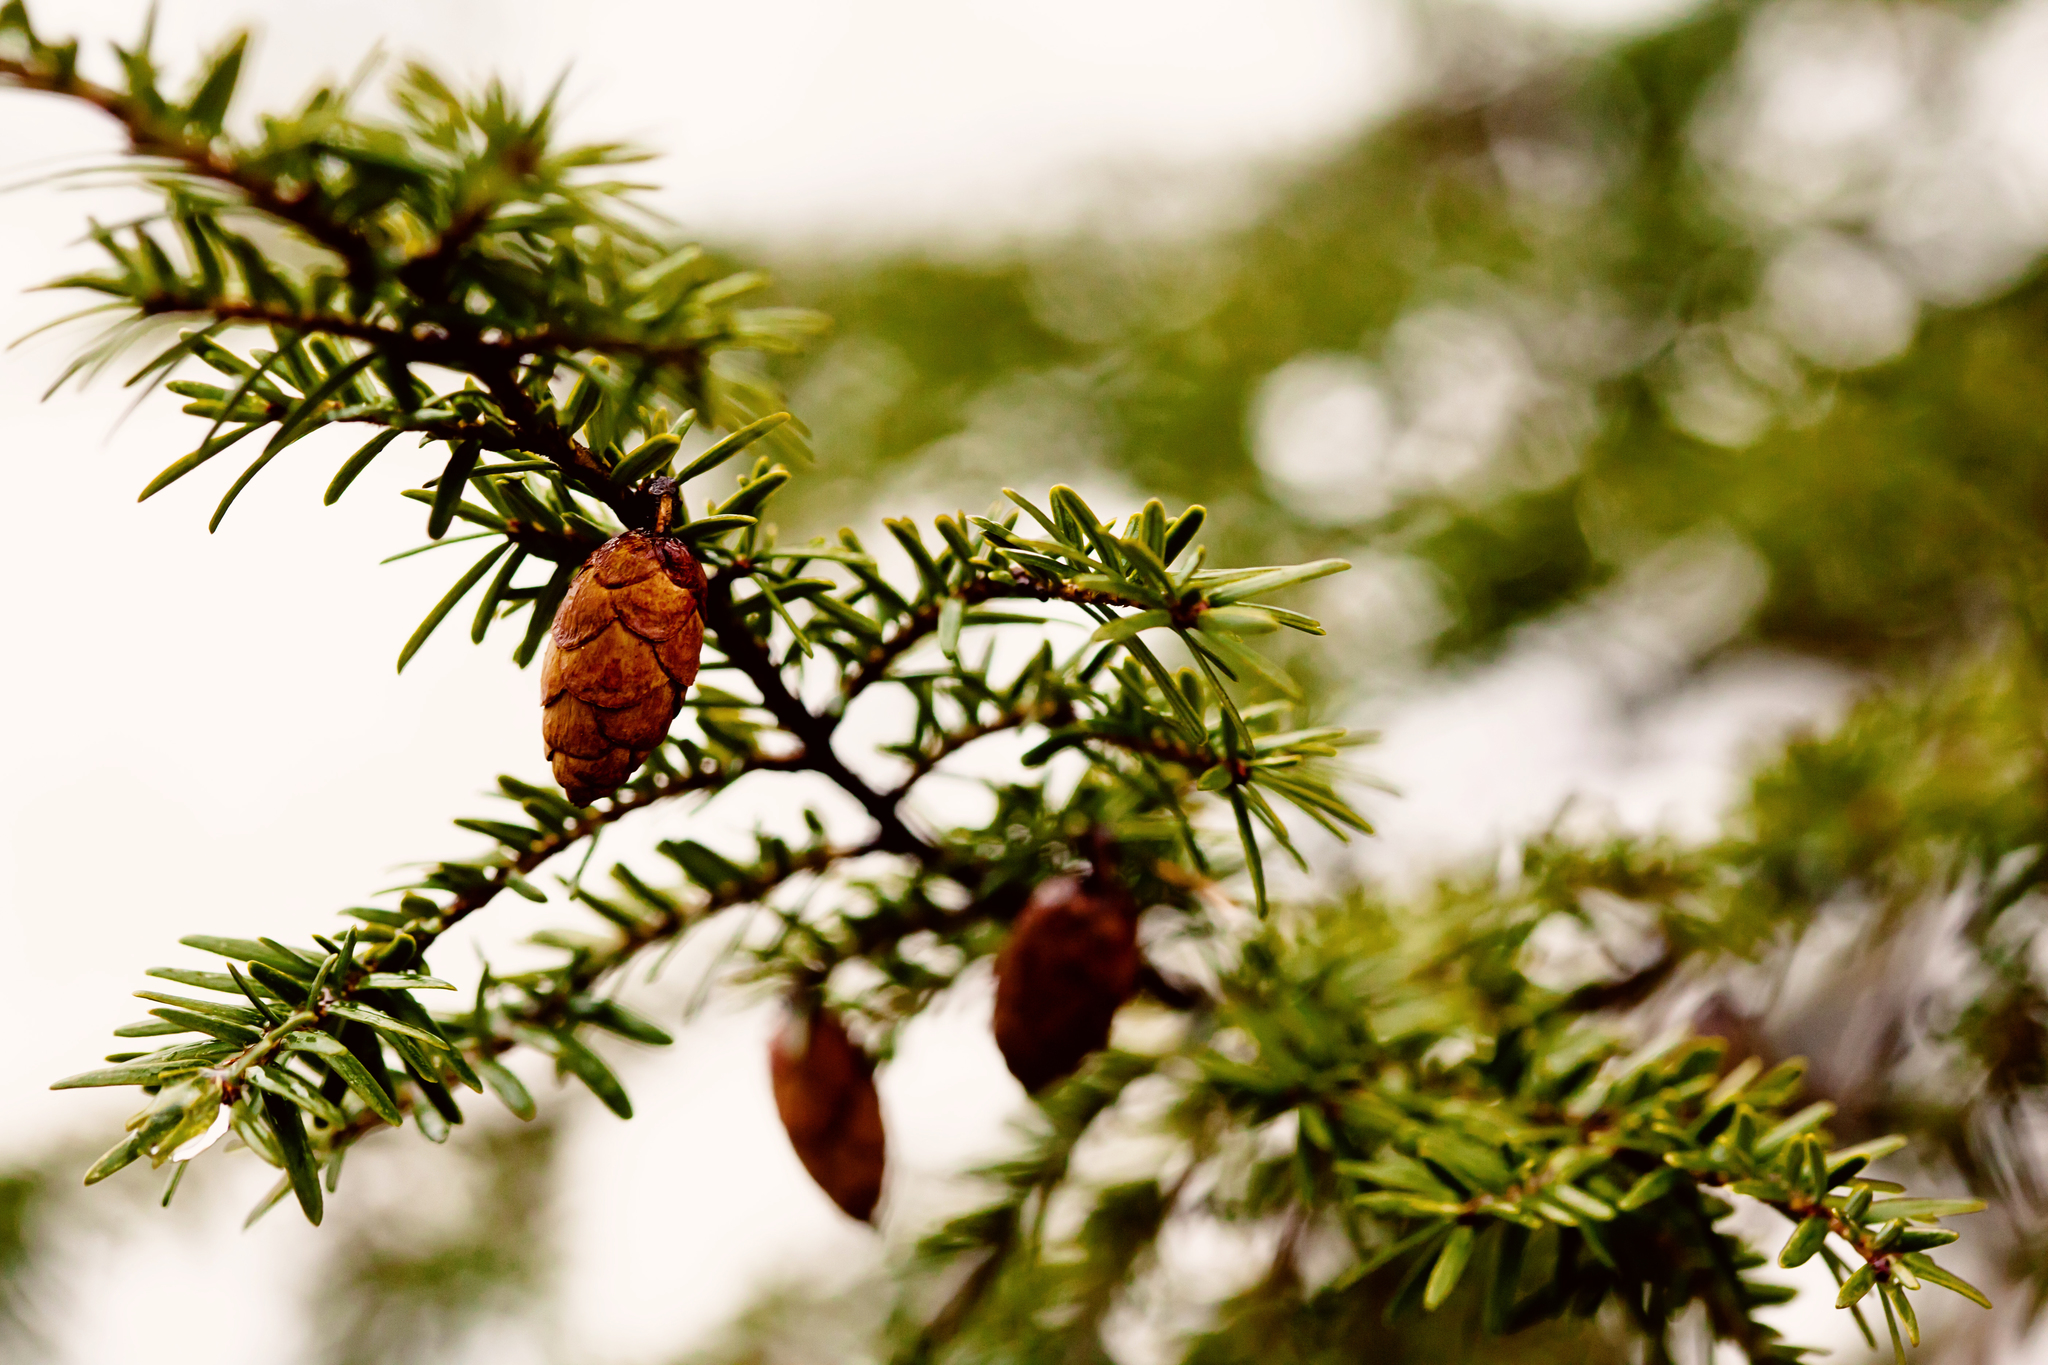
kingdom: Plantae
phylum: Tracheophyta
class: Pinopsida
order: Pinales
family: Pinaceae
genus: Tsuga
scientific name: Tsuga canadensis
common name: Eastern hemlock
